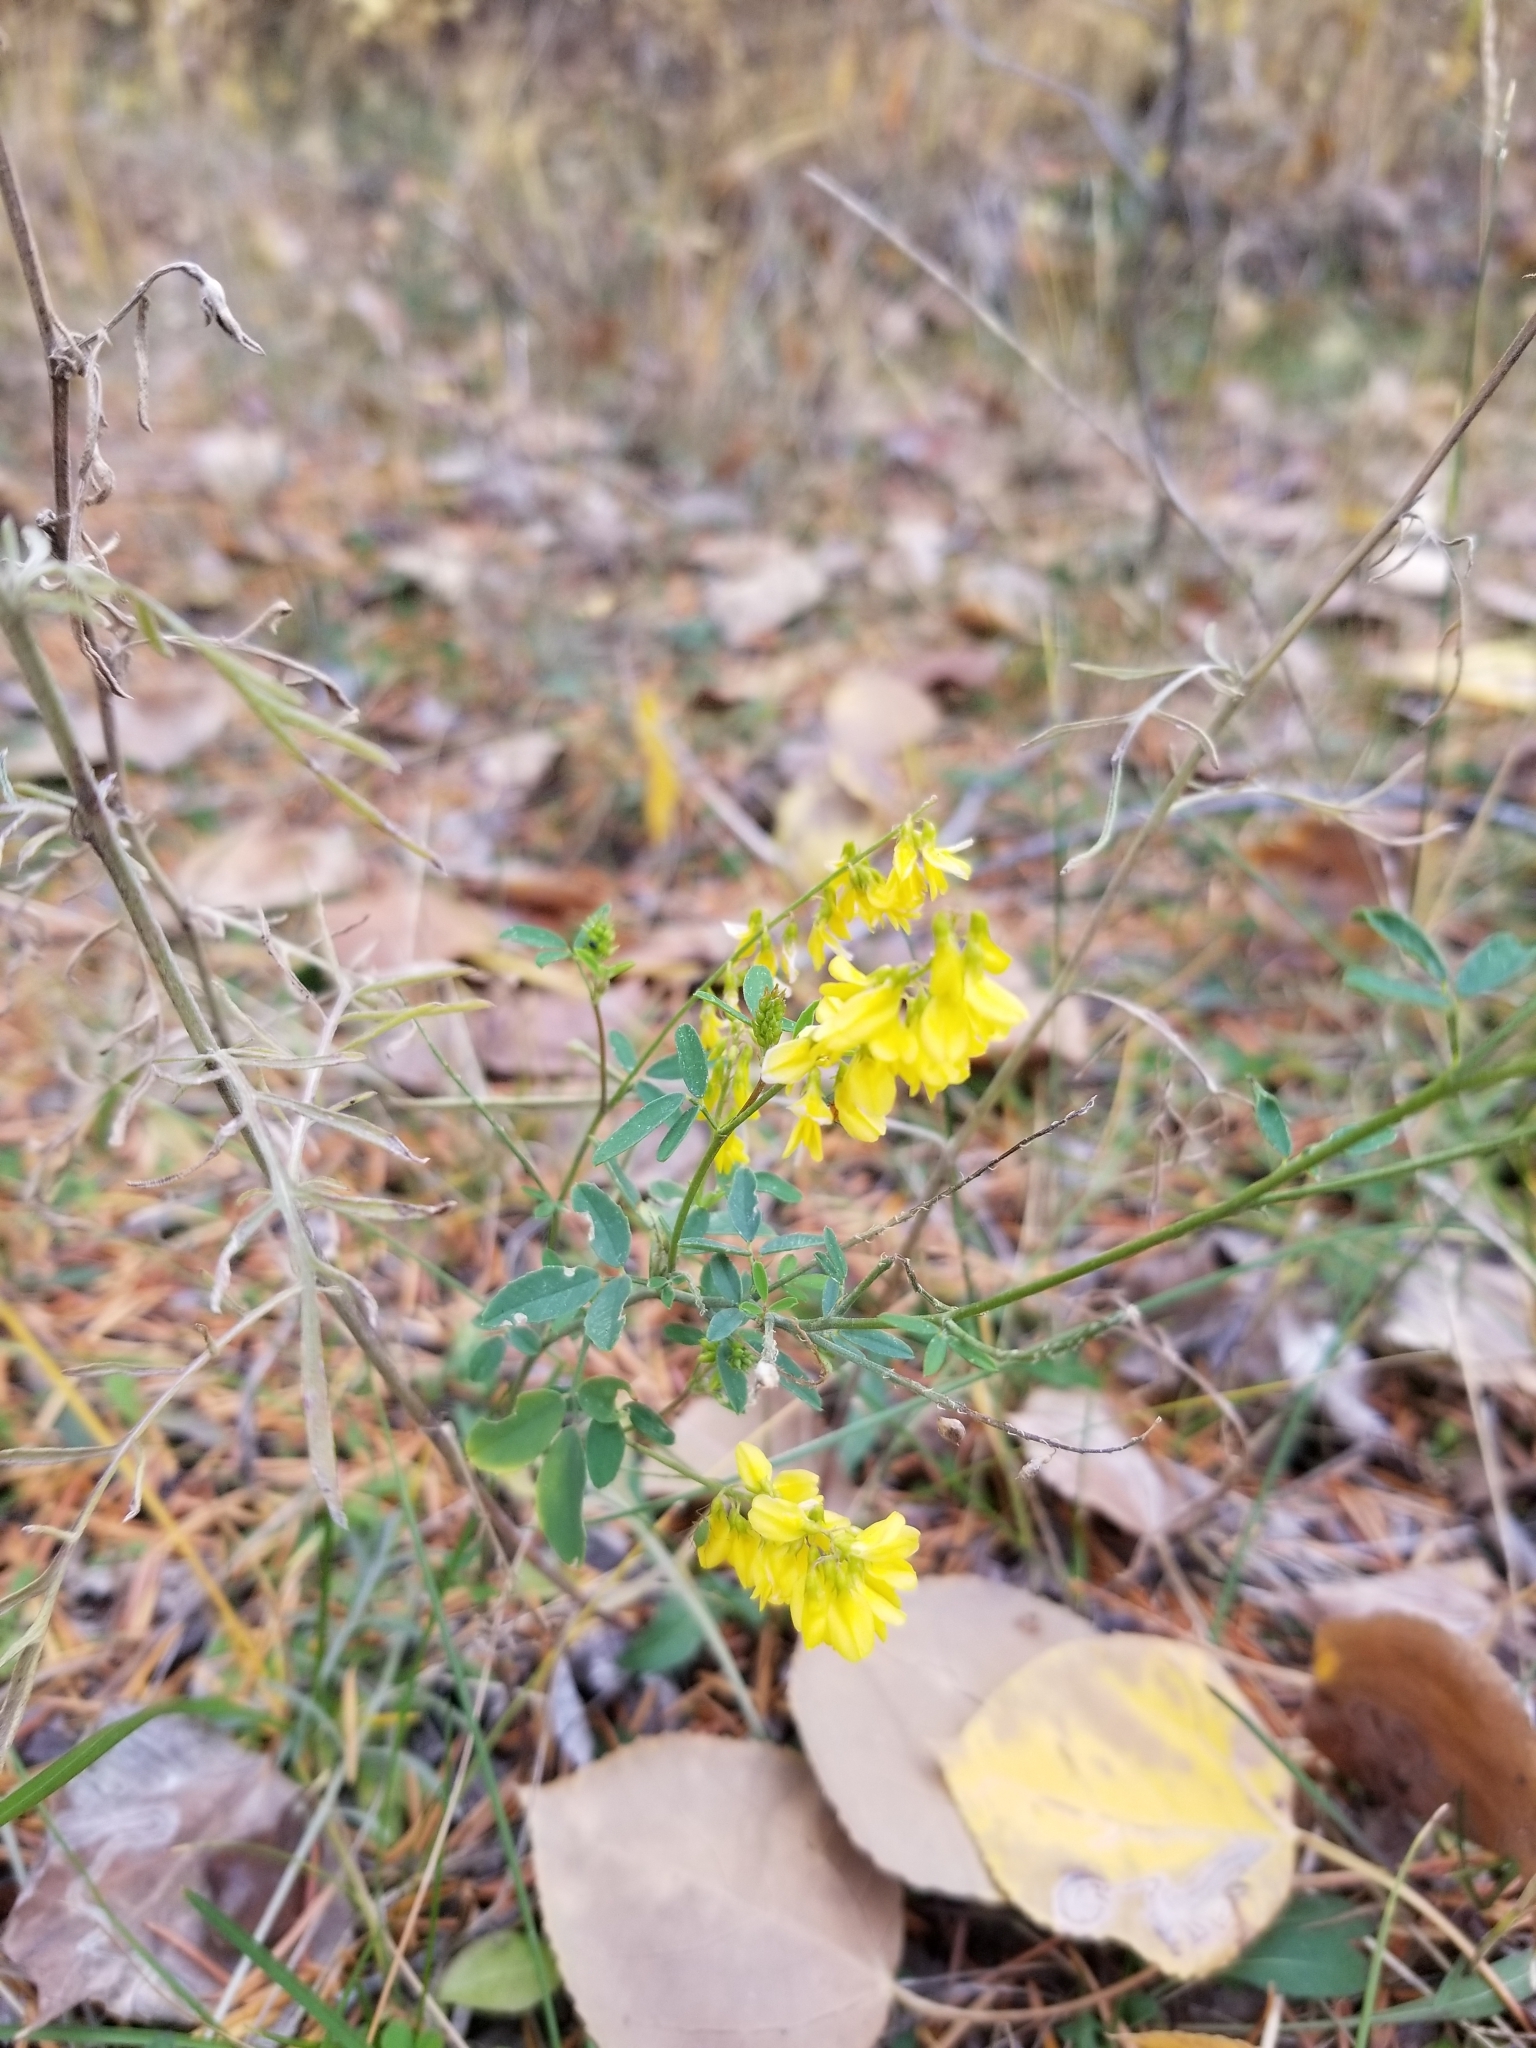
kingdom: Plantae
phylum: Tracheophyta
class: Magnoliopsida
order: Fabales
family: Fabaceae
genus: Melilotus
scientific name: Melilotus officinalis
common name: Sweetclover
